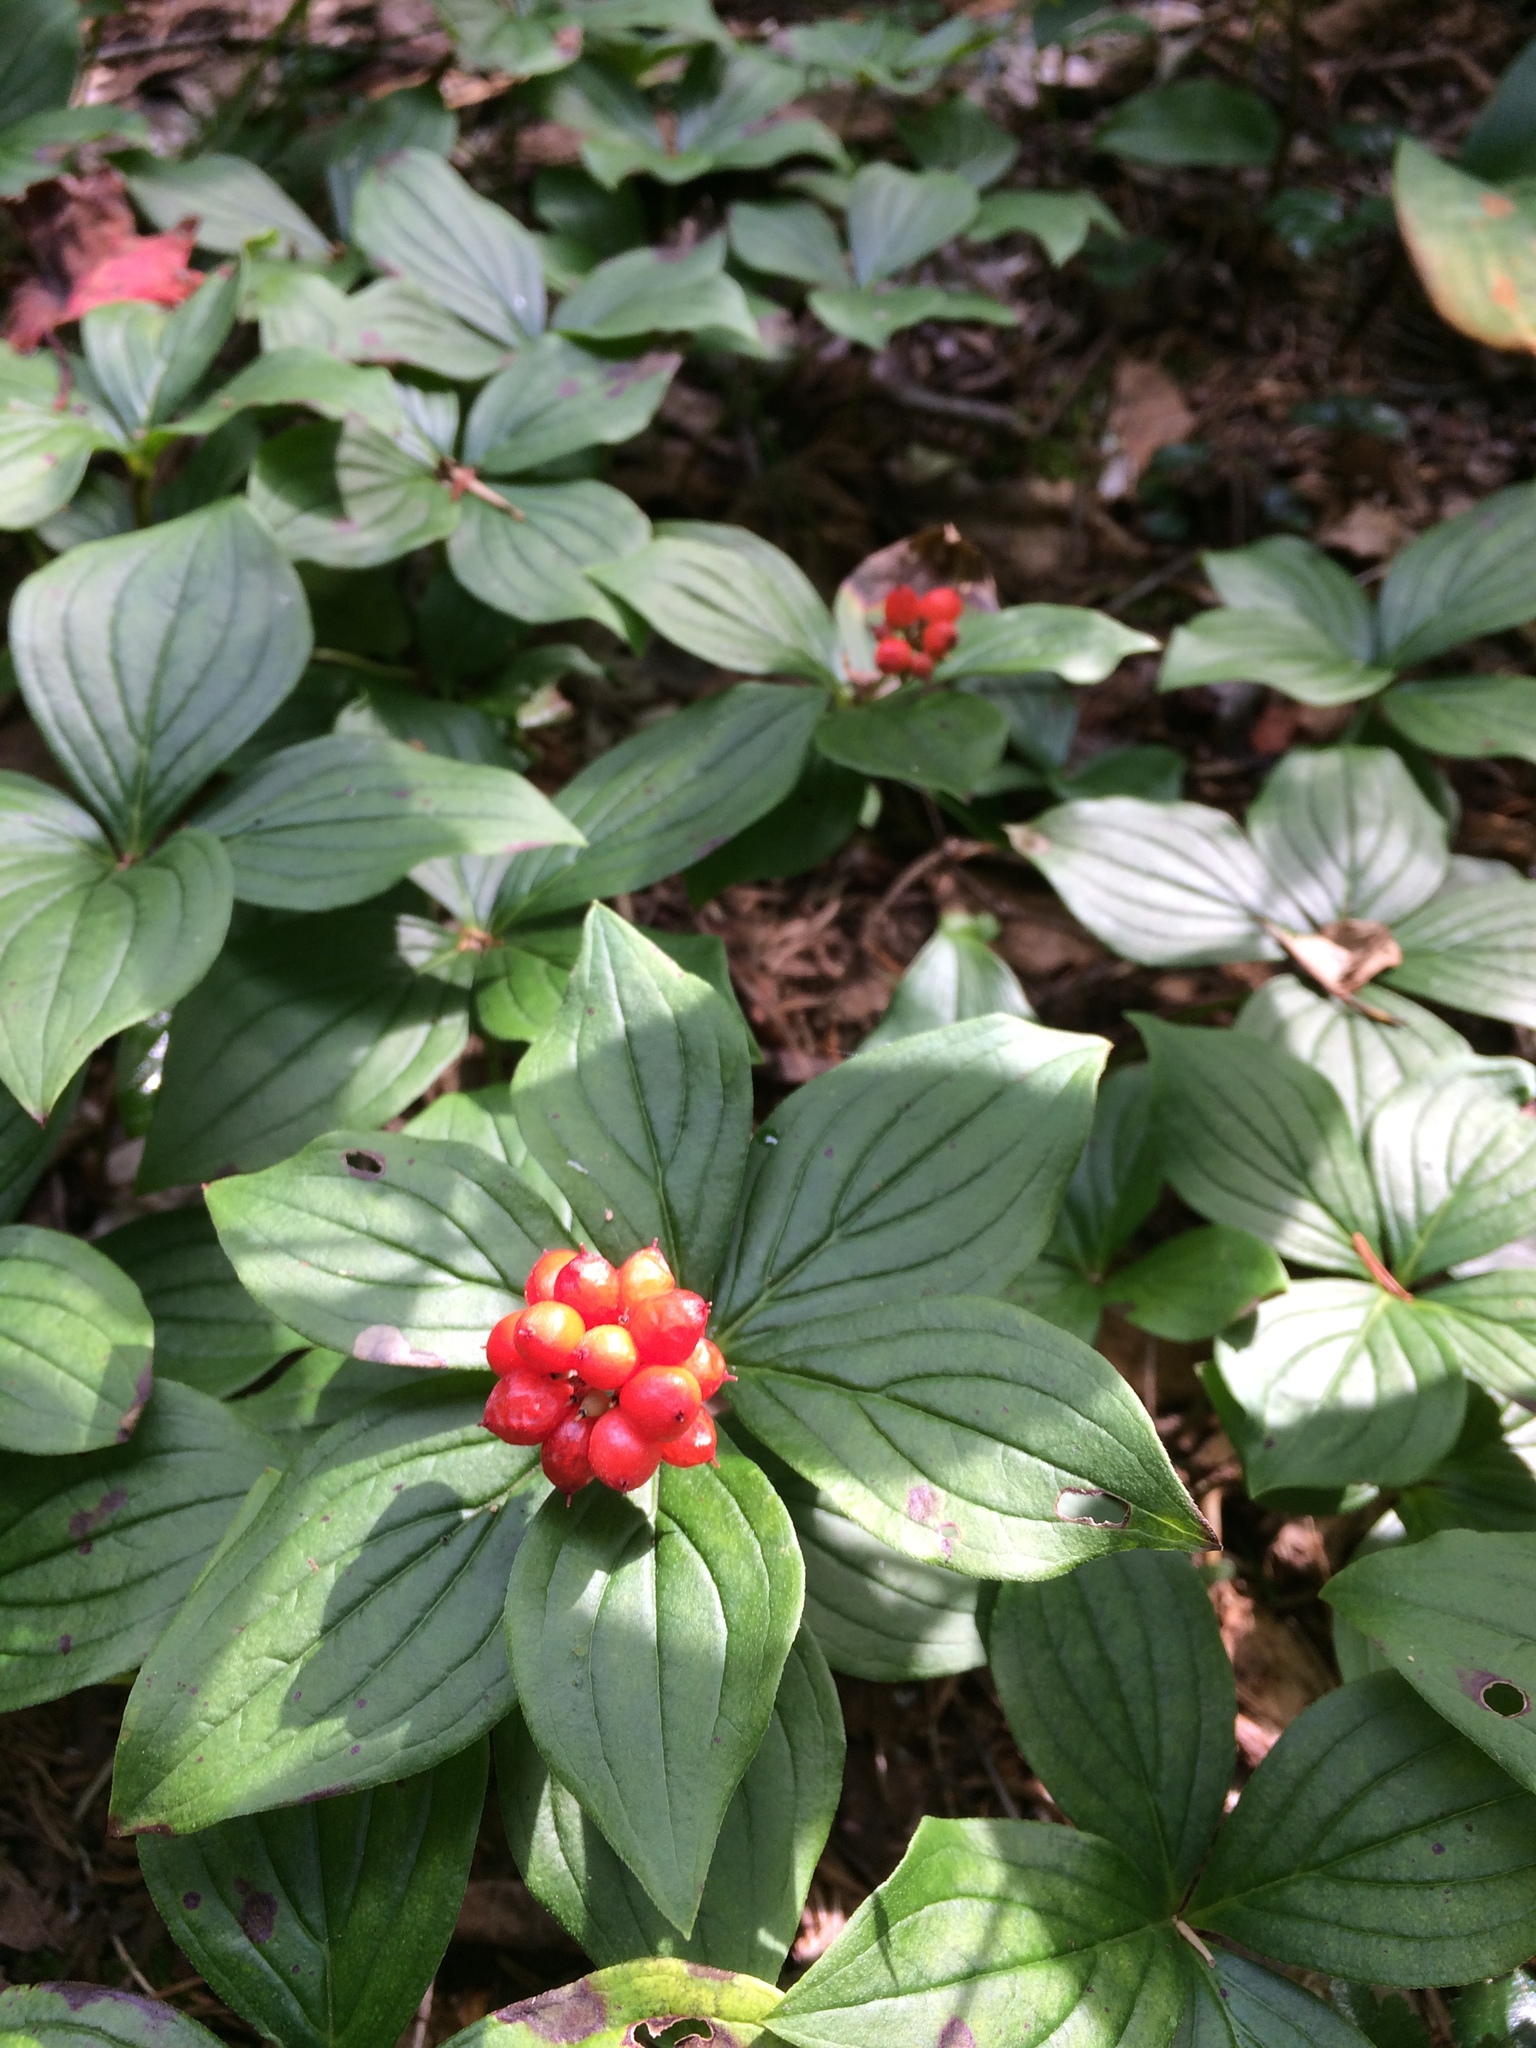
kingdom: Plantae
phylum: Tracheophyta
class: Magnoliopsida
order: Cornales
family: Cornaceae
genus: Cornus
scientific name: Cornus canadensis
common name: Creeping dogwood
